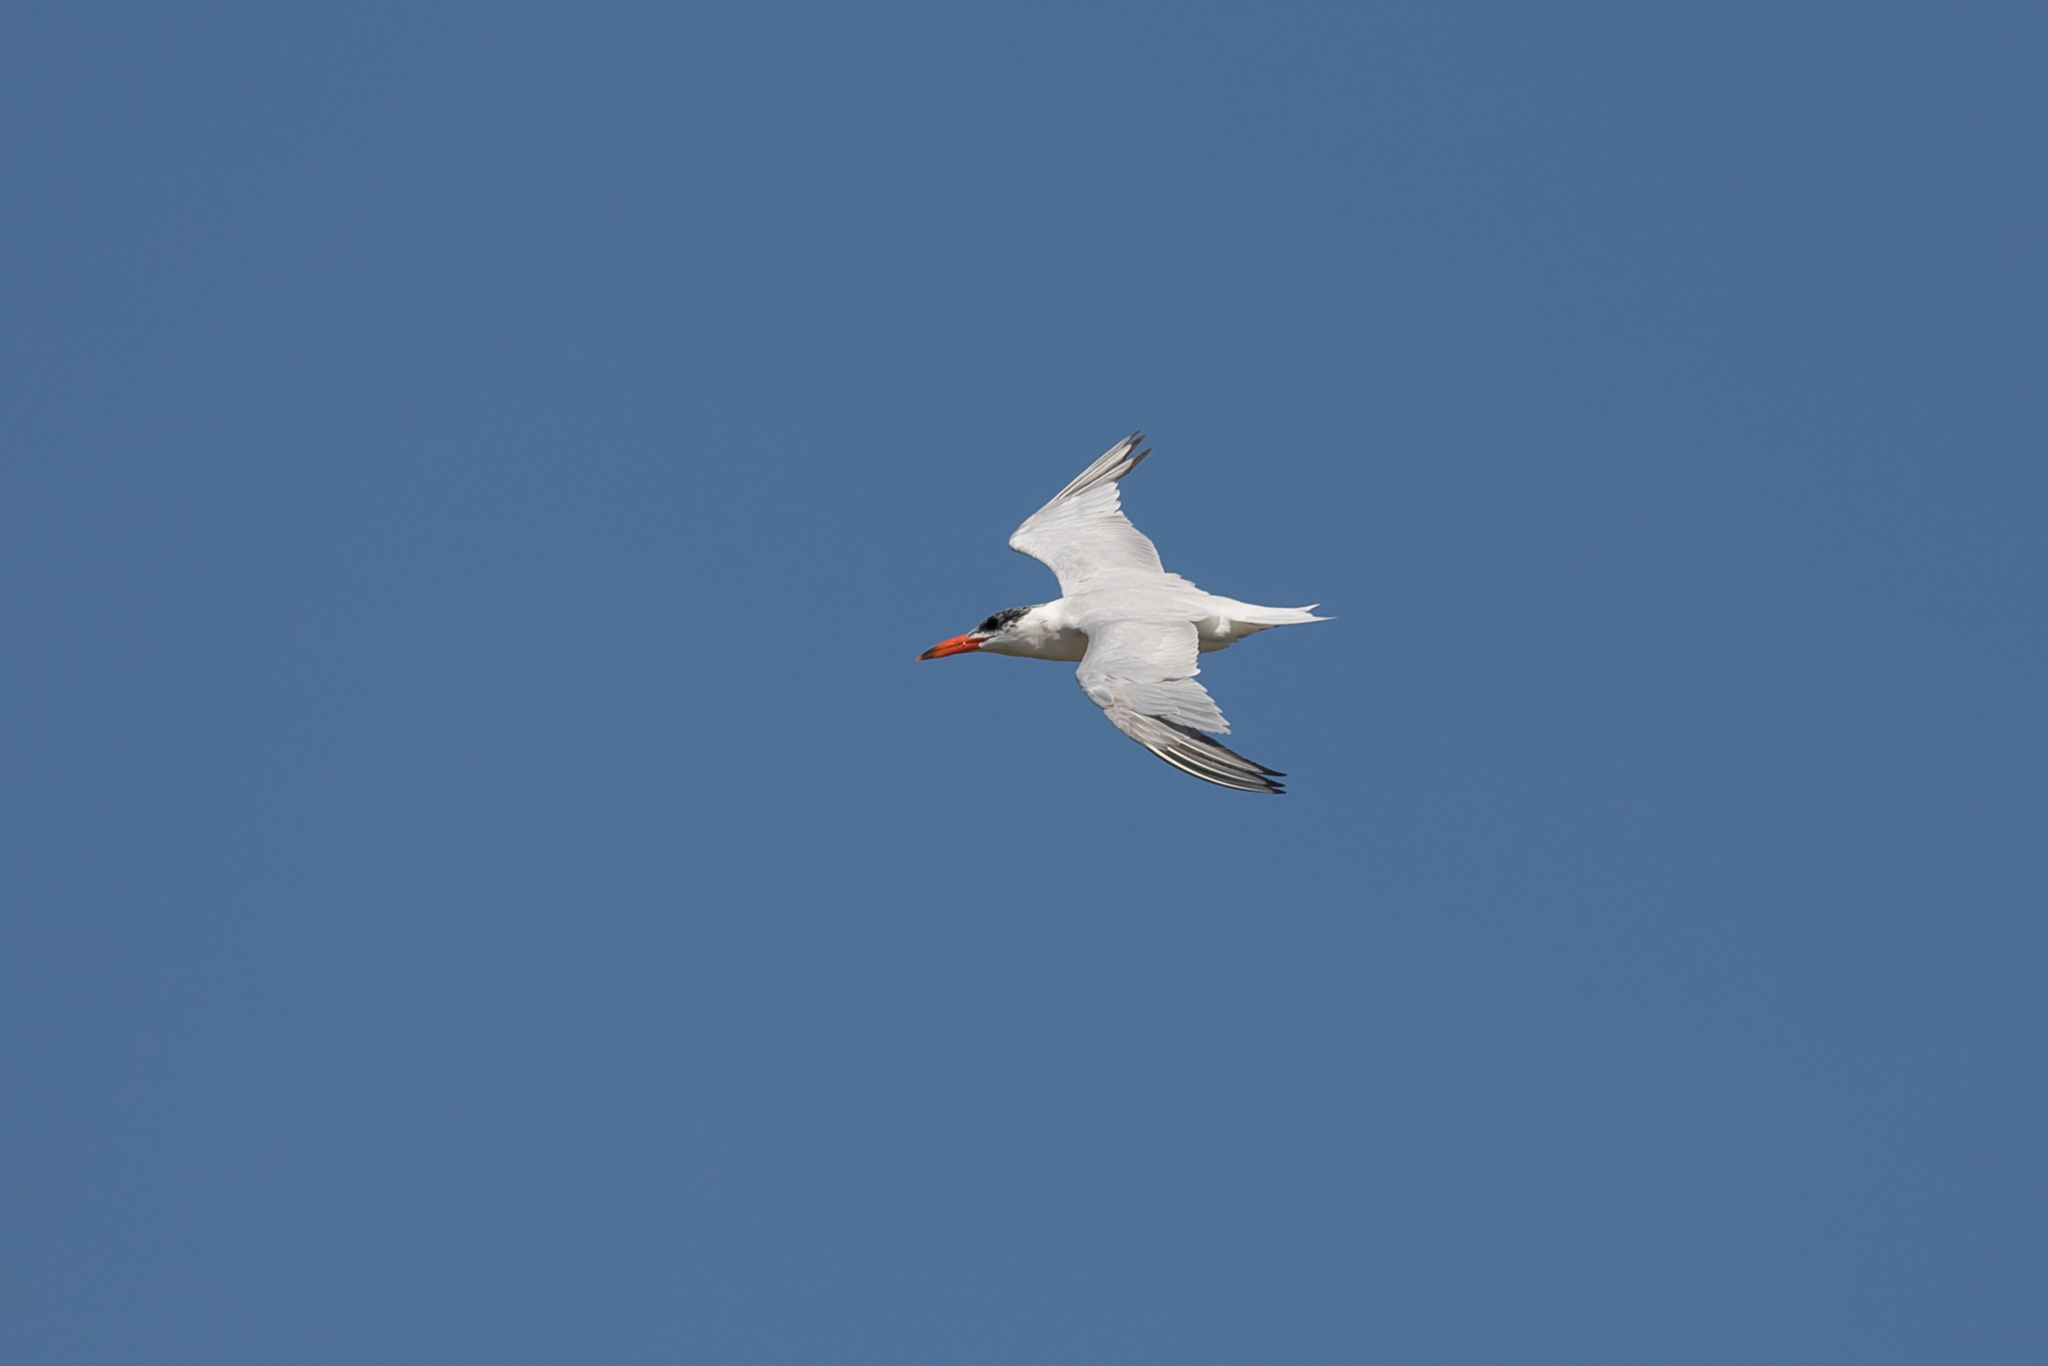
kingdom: Animalia
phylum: Chordata
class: Aves
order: Charadriiformes
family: Laridae
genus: Hydroprogne
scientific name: Hydroprogne caspia
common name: Caspian tern
